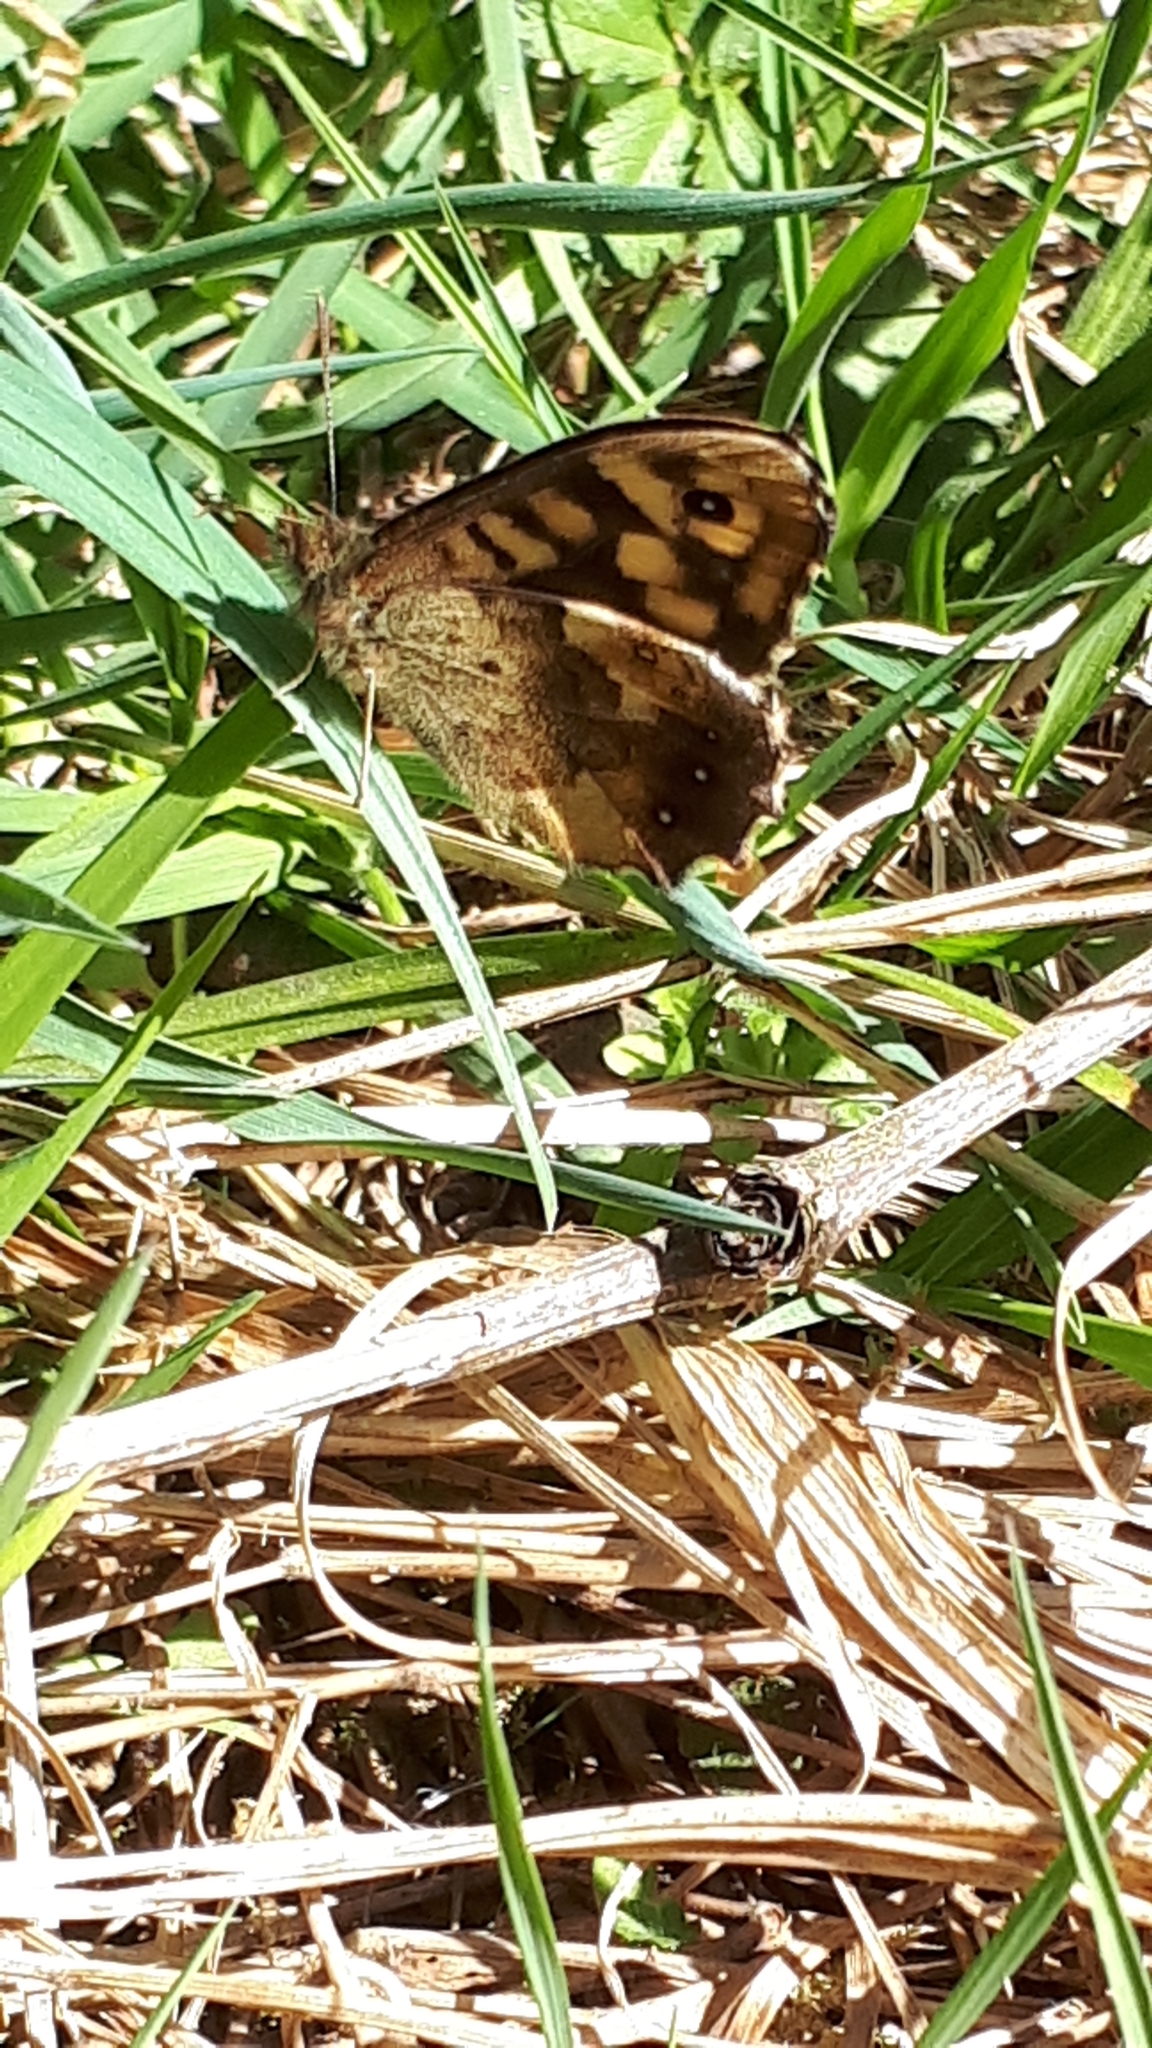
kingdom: Animalia
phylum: Arthropoda
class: Insecta
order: Lepidoptera
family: Nymphalidae
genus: Pararge
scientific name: Pararge aegeria
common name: Speckled wood
